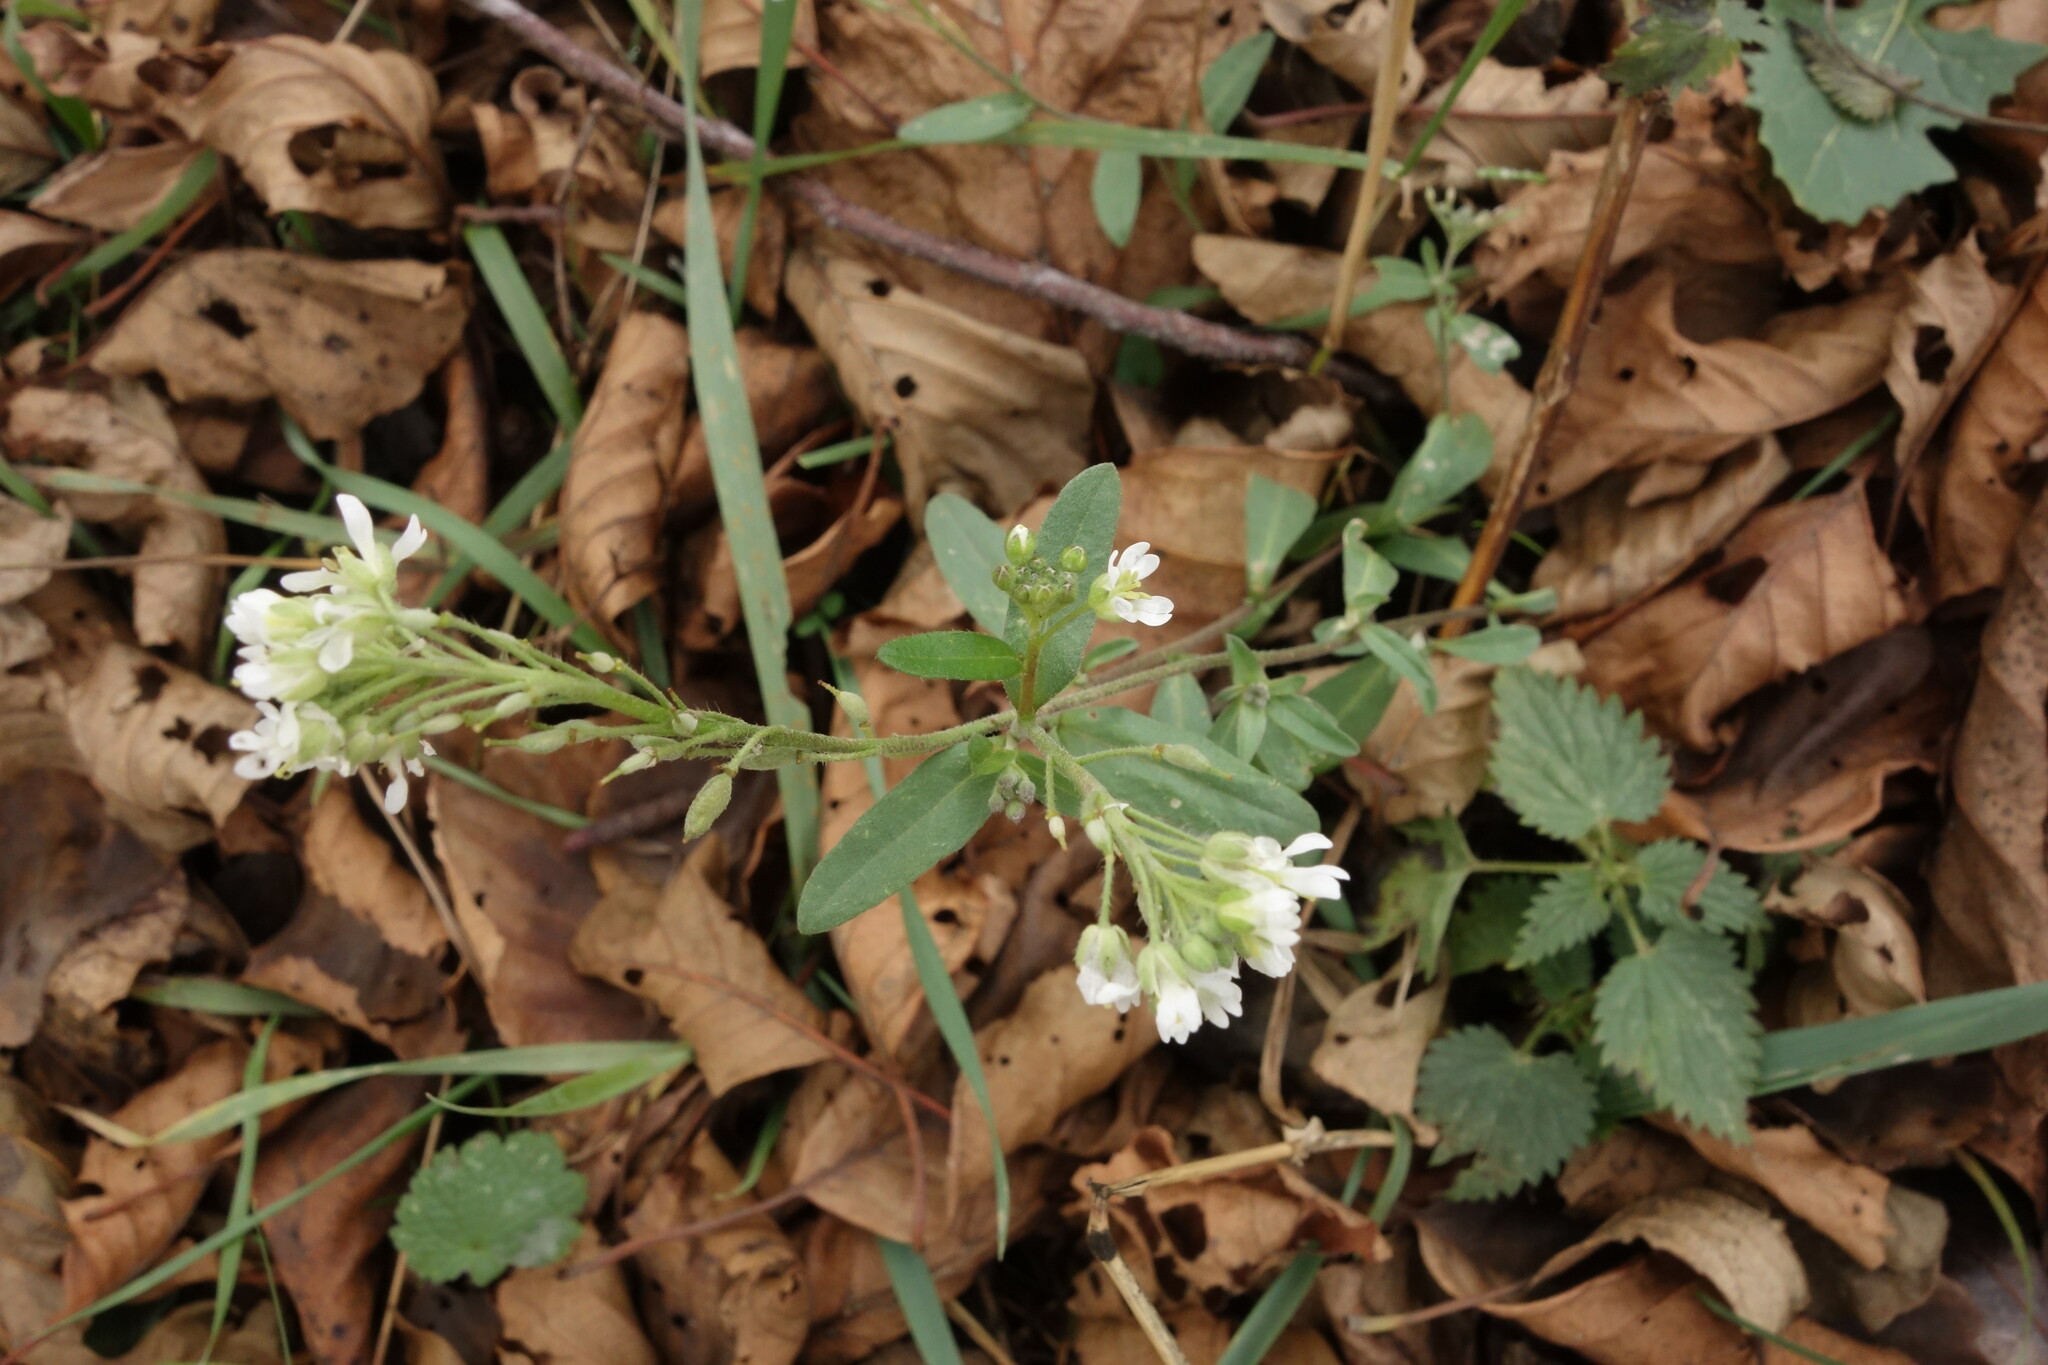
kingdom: Plantae
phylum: Tracheophyta
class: Magnoliopsida
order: Brassicales
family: Brassicaceae
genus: Berteroa
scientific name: Berteroa incana
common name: Hoary alison
